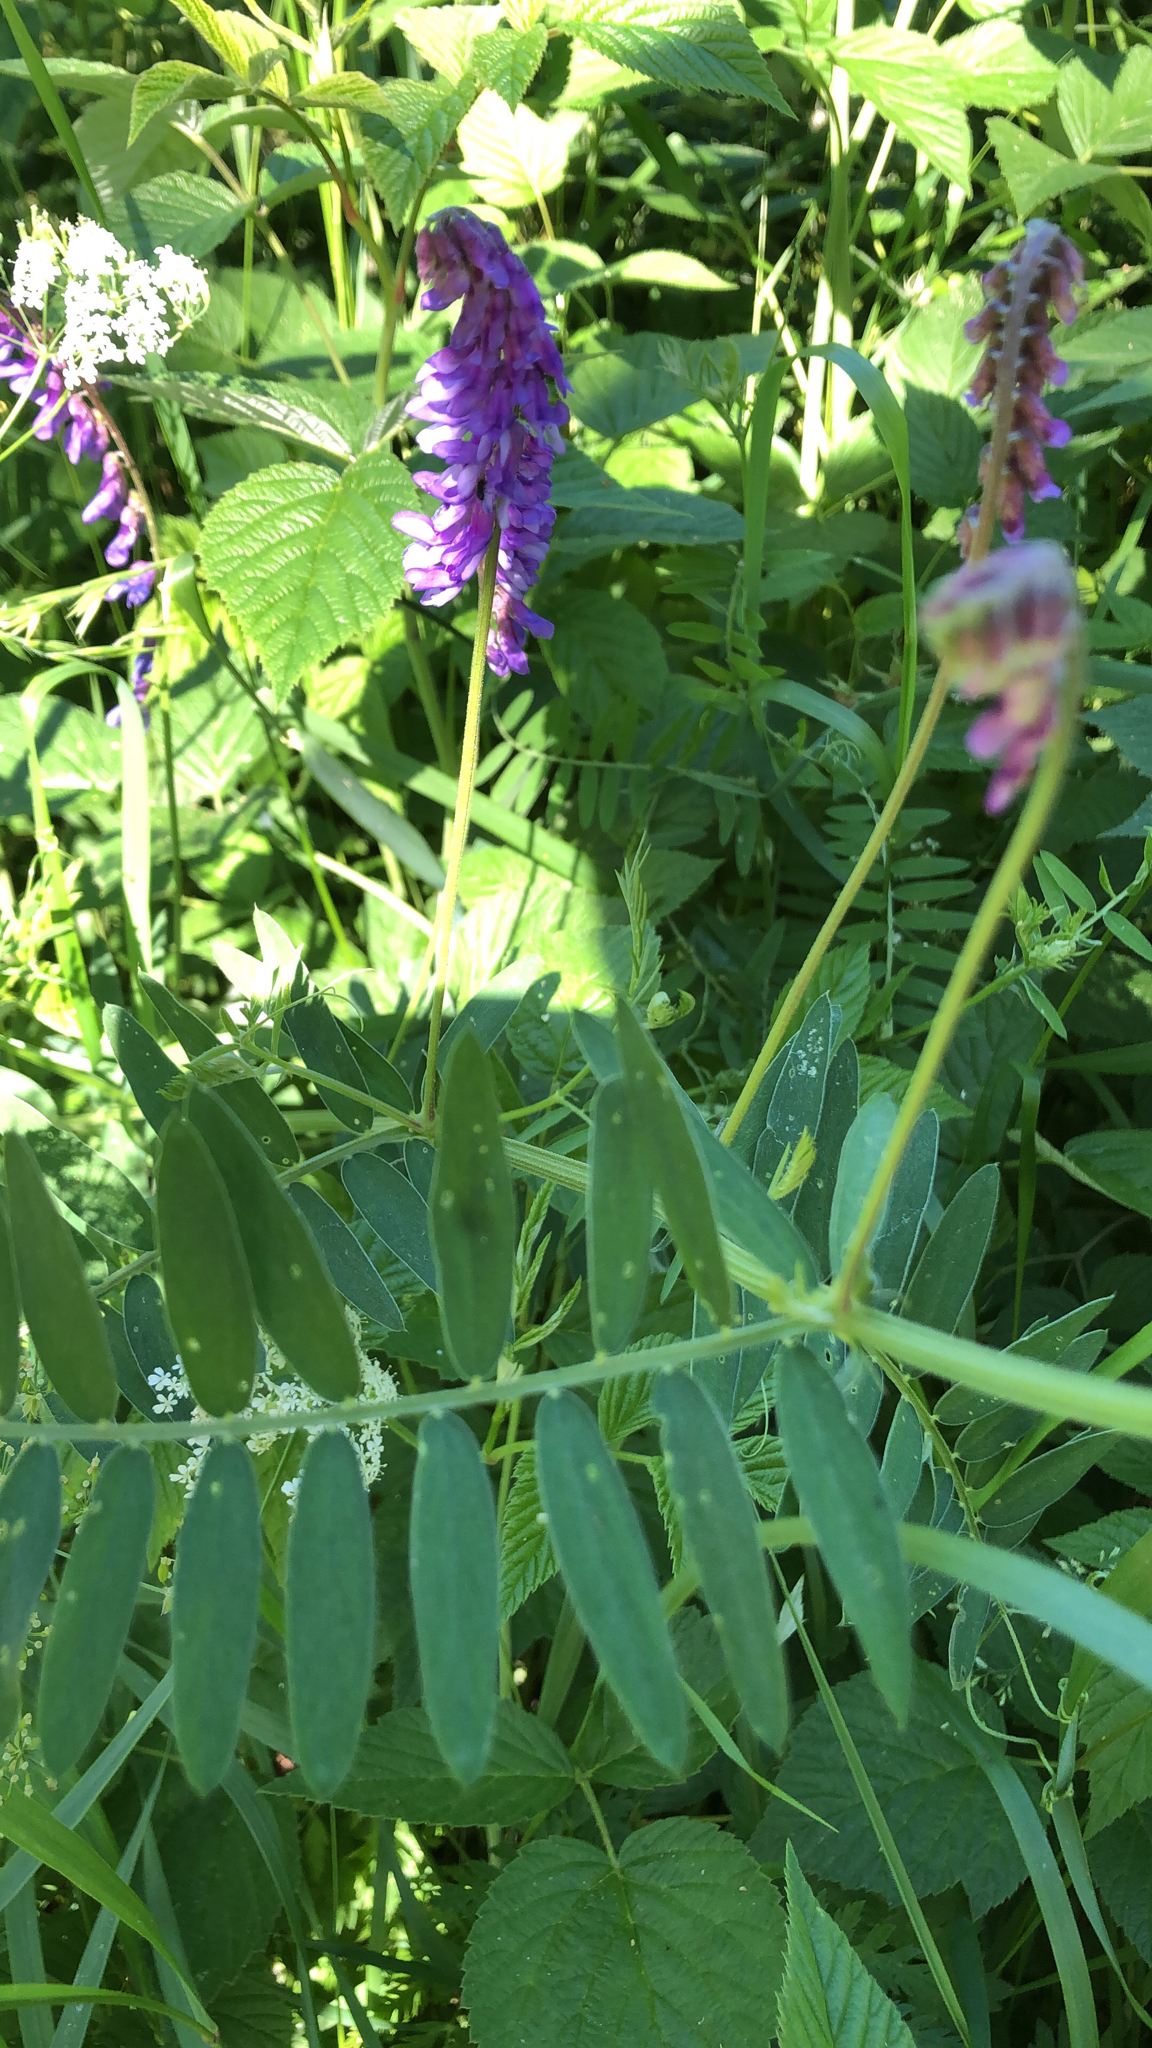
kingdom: Plantae
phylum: Tracheophyta
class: Magnoliopsida
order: Fabales
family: Fabaceae
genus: Vicia
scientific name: Vicia cracca
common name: Bird vetch
